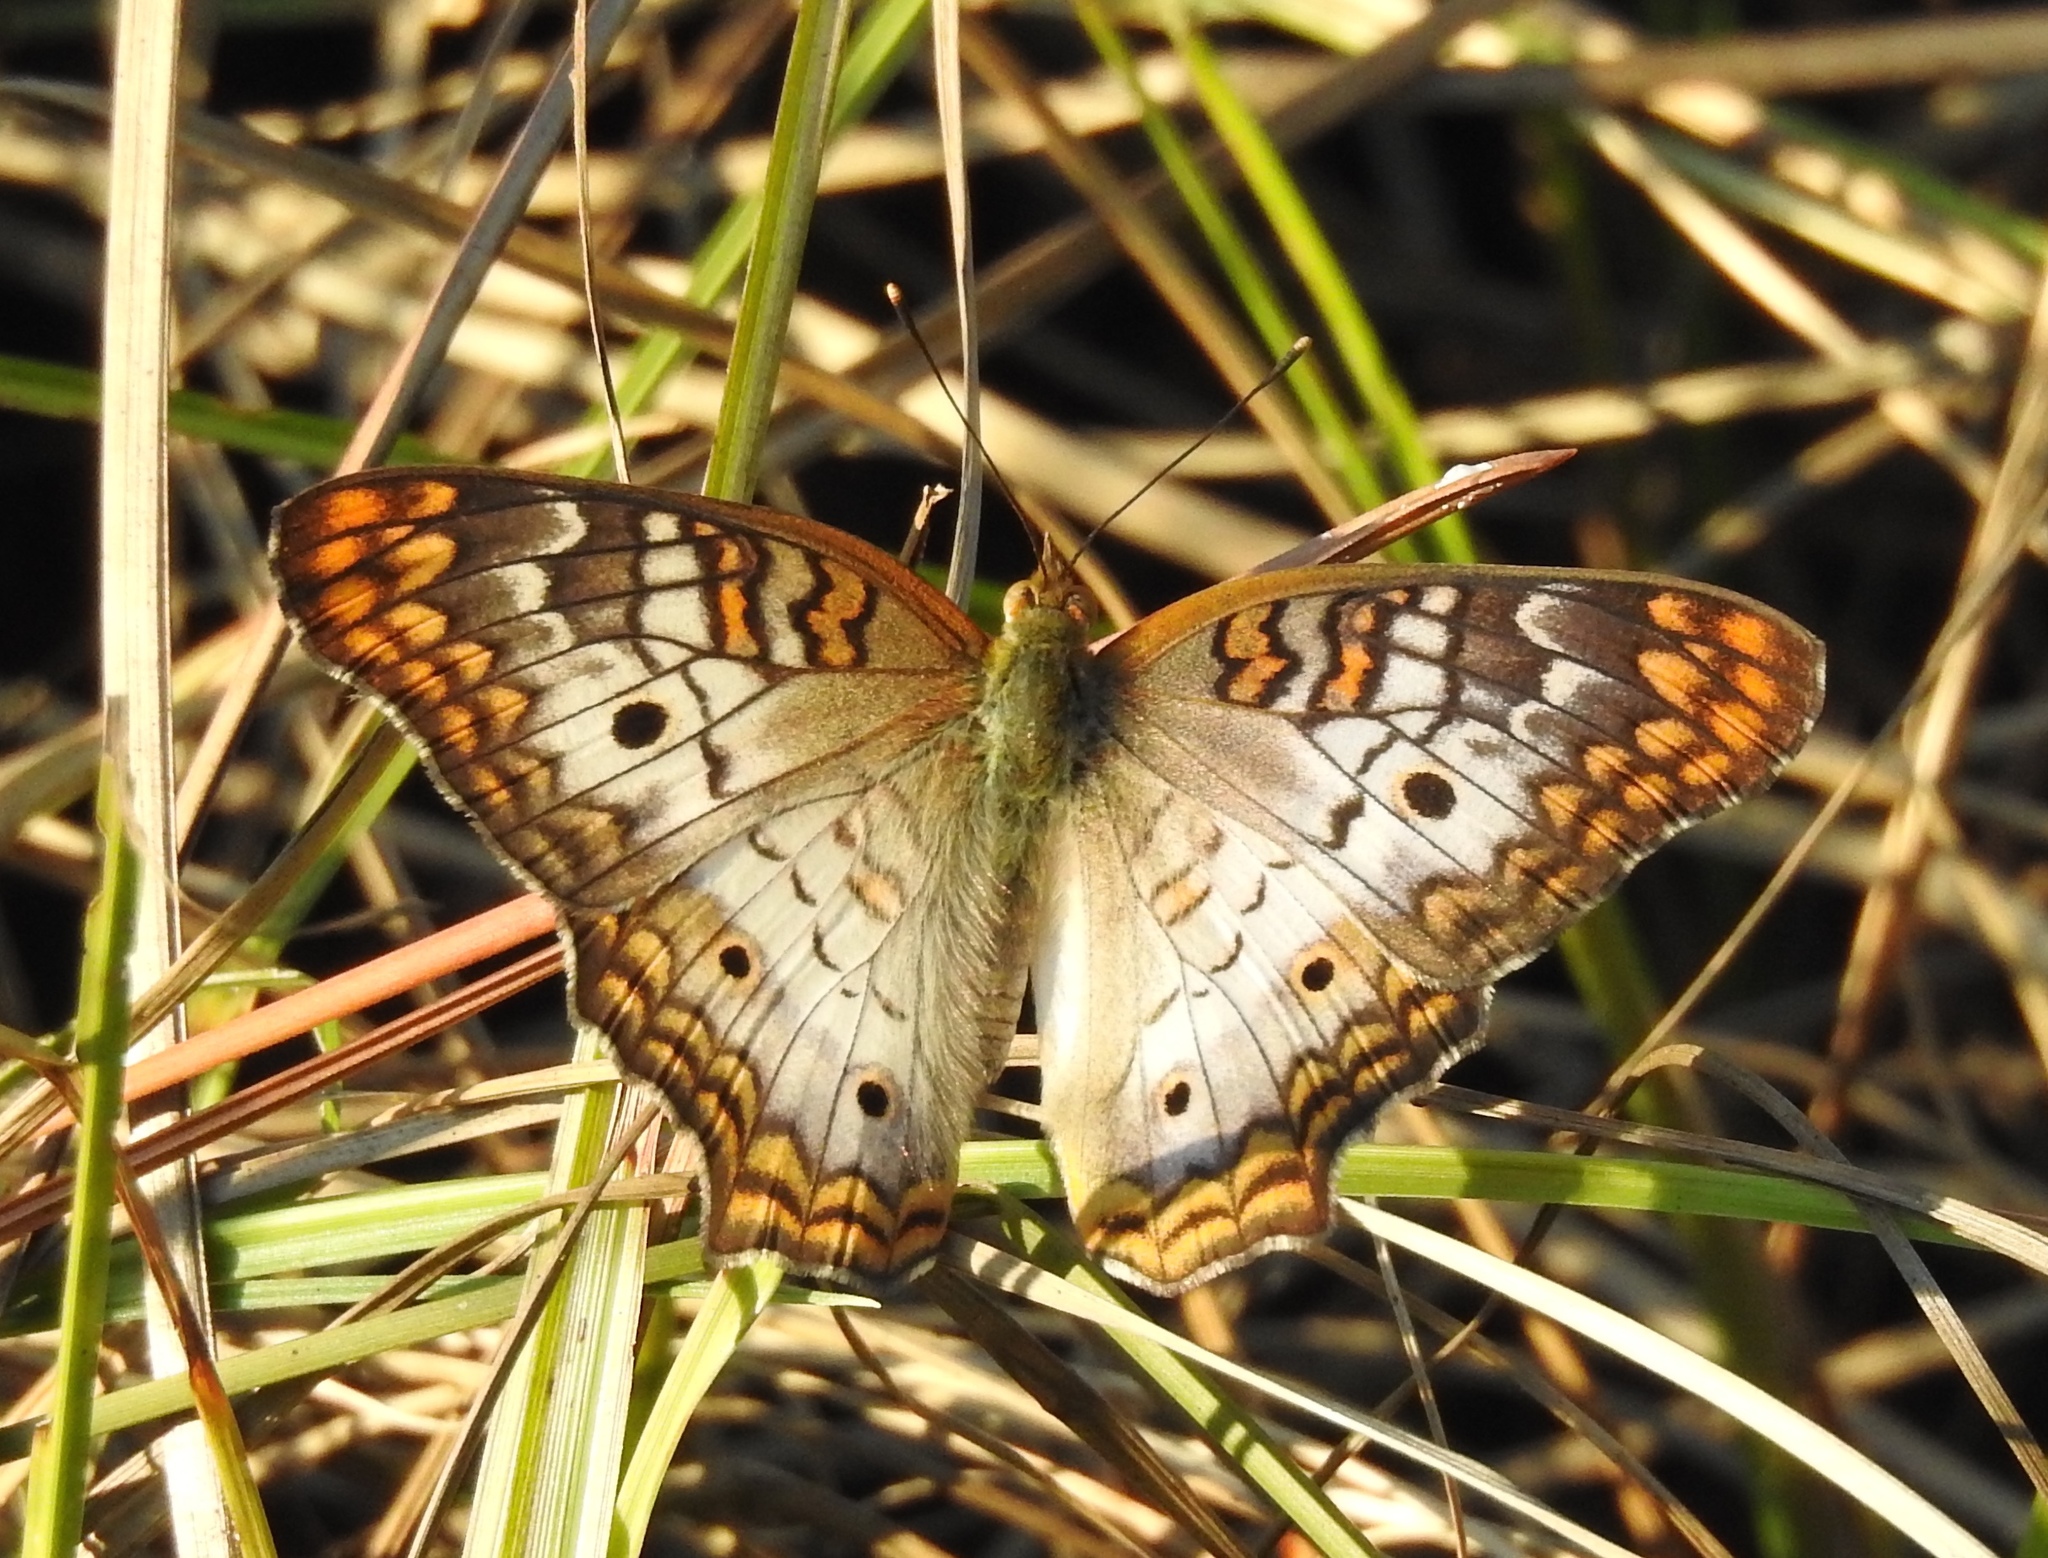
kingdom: Animalia
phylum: Arthropoda
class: Insecta
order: Lepidoptera
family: Nymphalidae
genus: Anartia
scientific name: Anartia jatrophae
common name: White peacock
